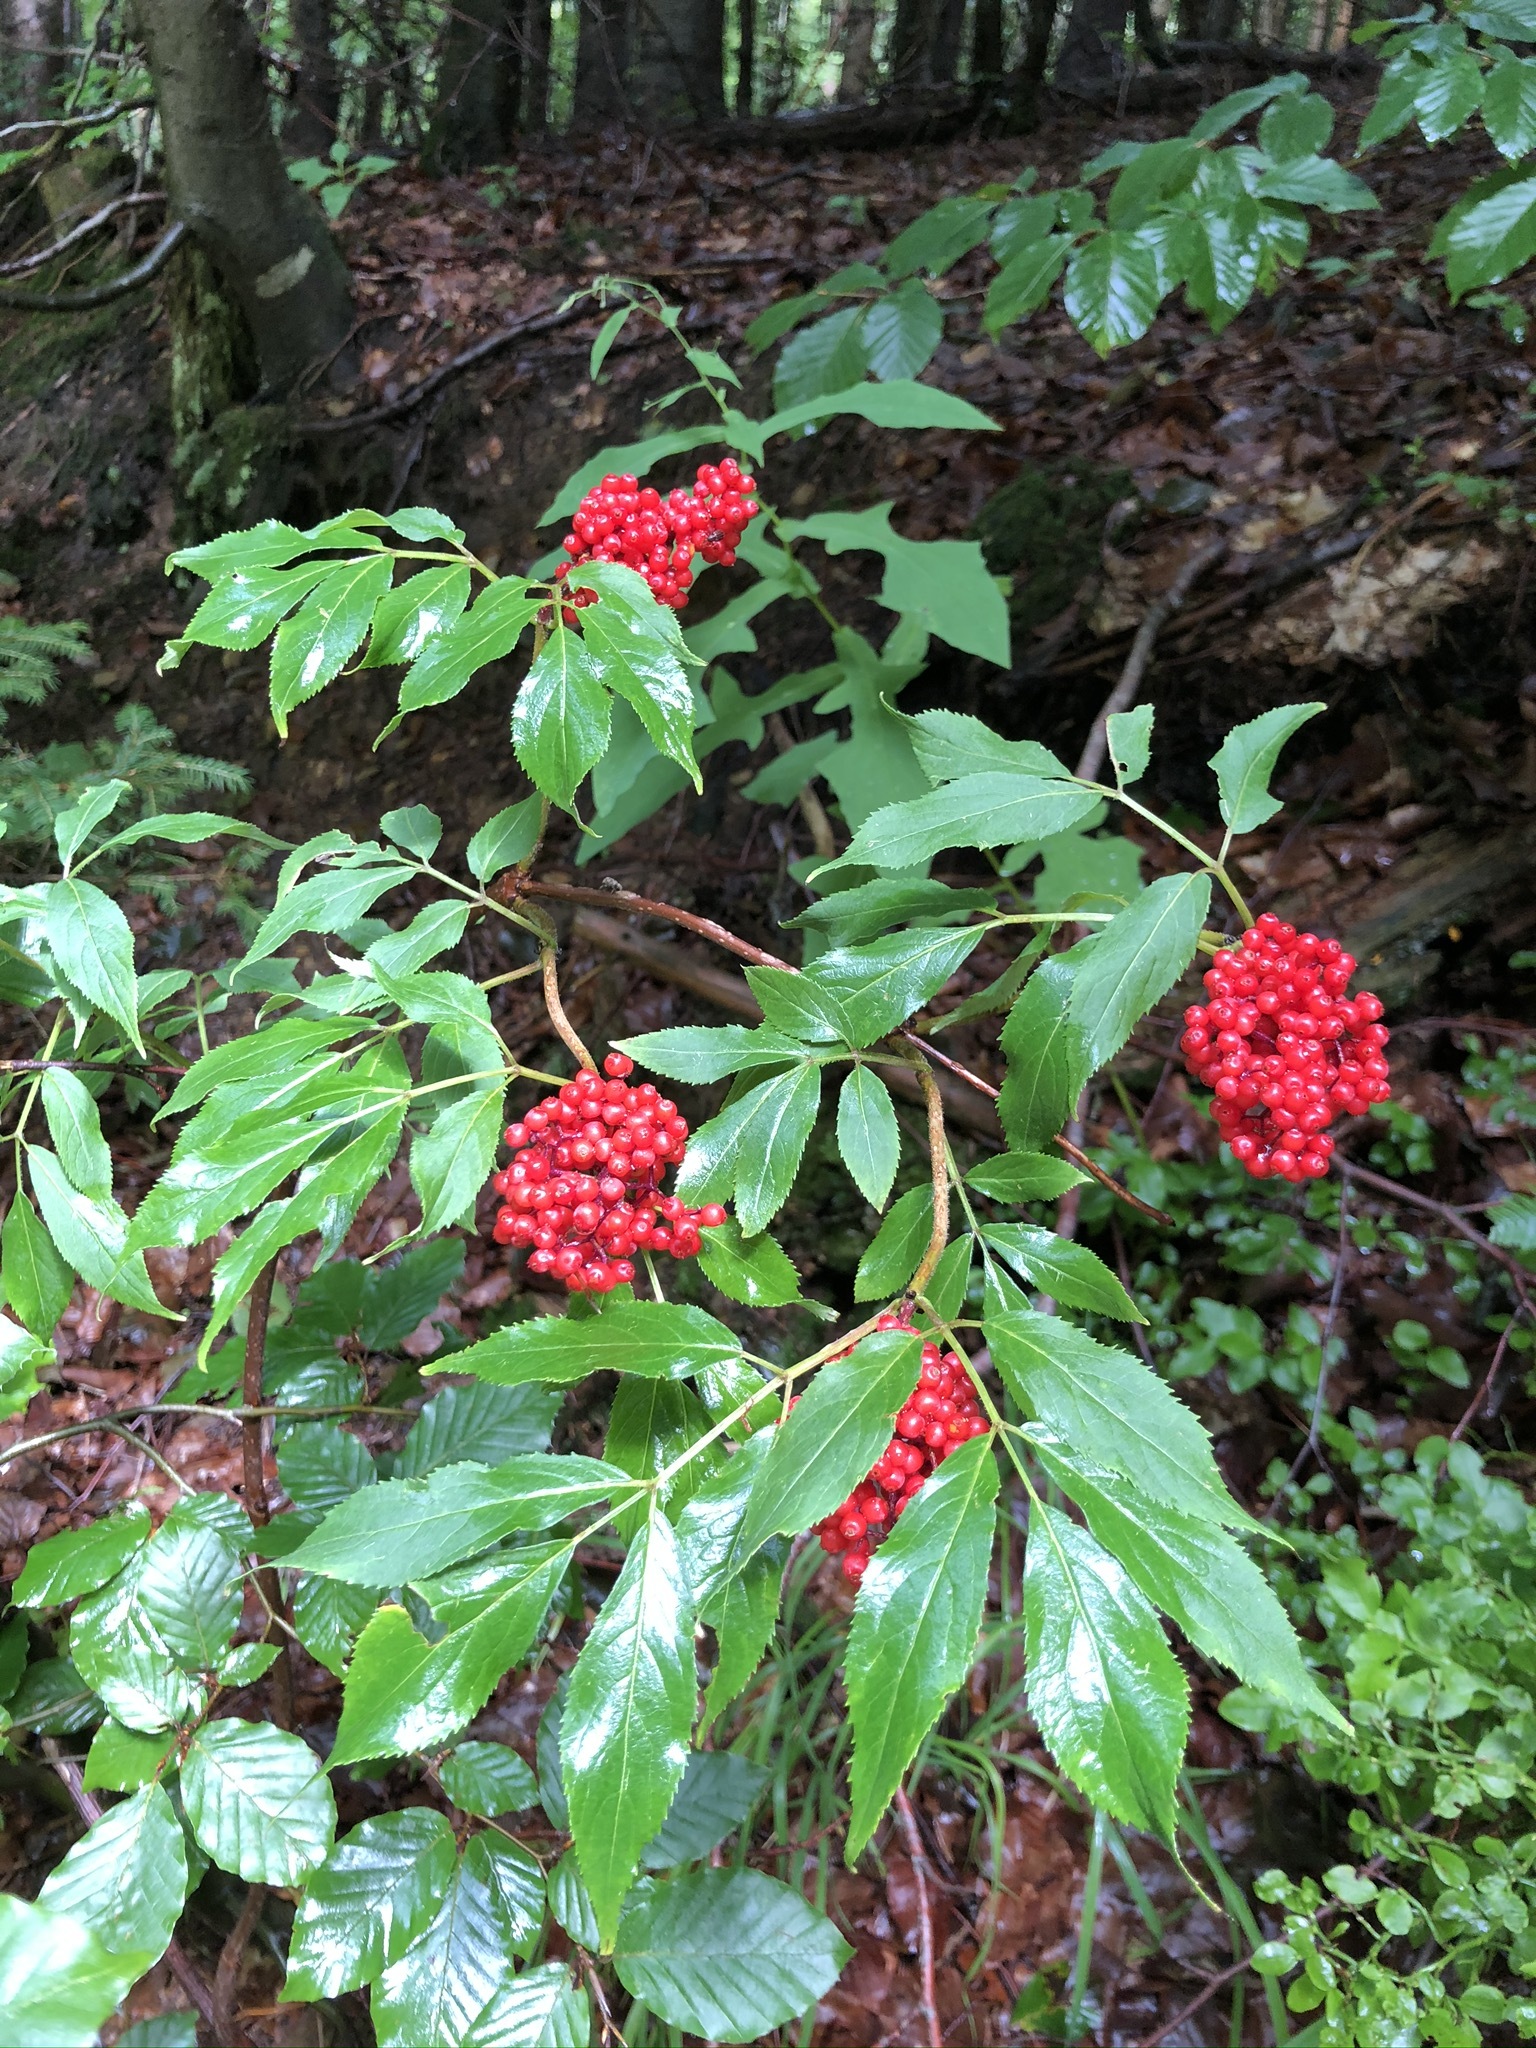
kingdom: Plantae
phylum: Tracheophyta
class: Magnoliopsida
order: Dipsacales
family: Viburnaceae
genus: Sambucus
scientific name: Sambucus racemosa
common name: Red-berried elder
